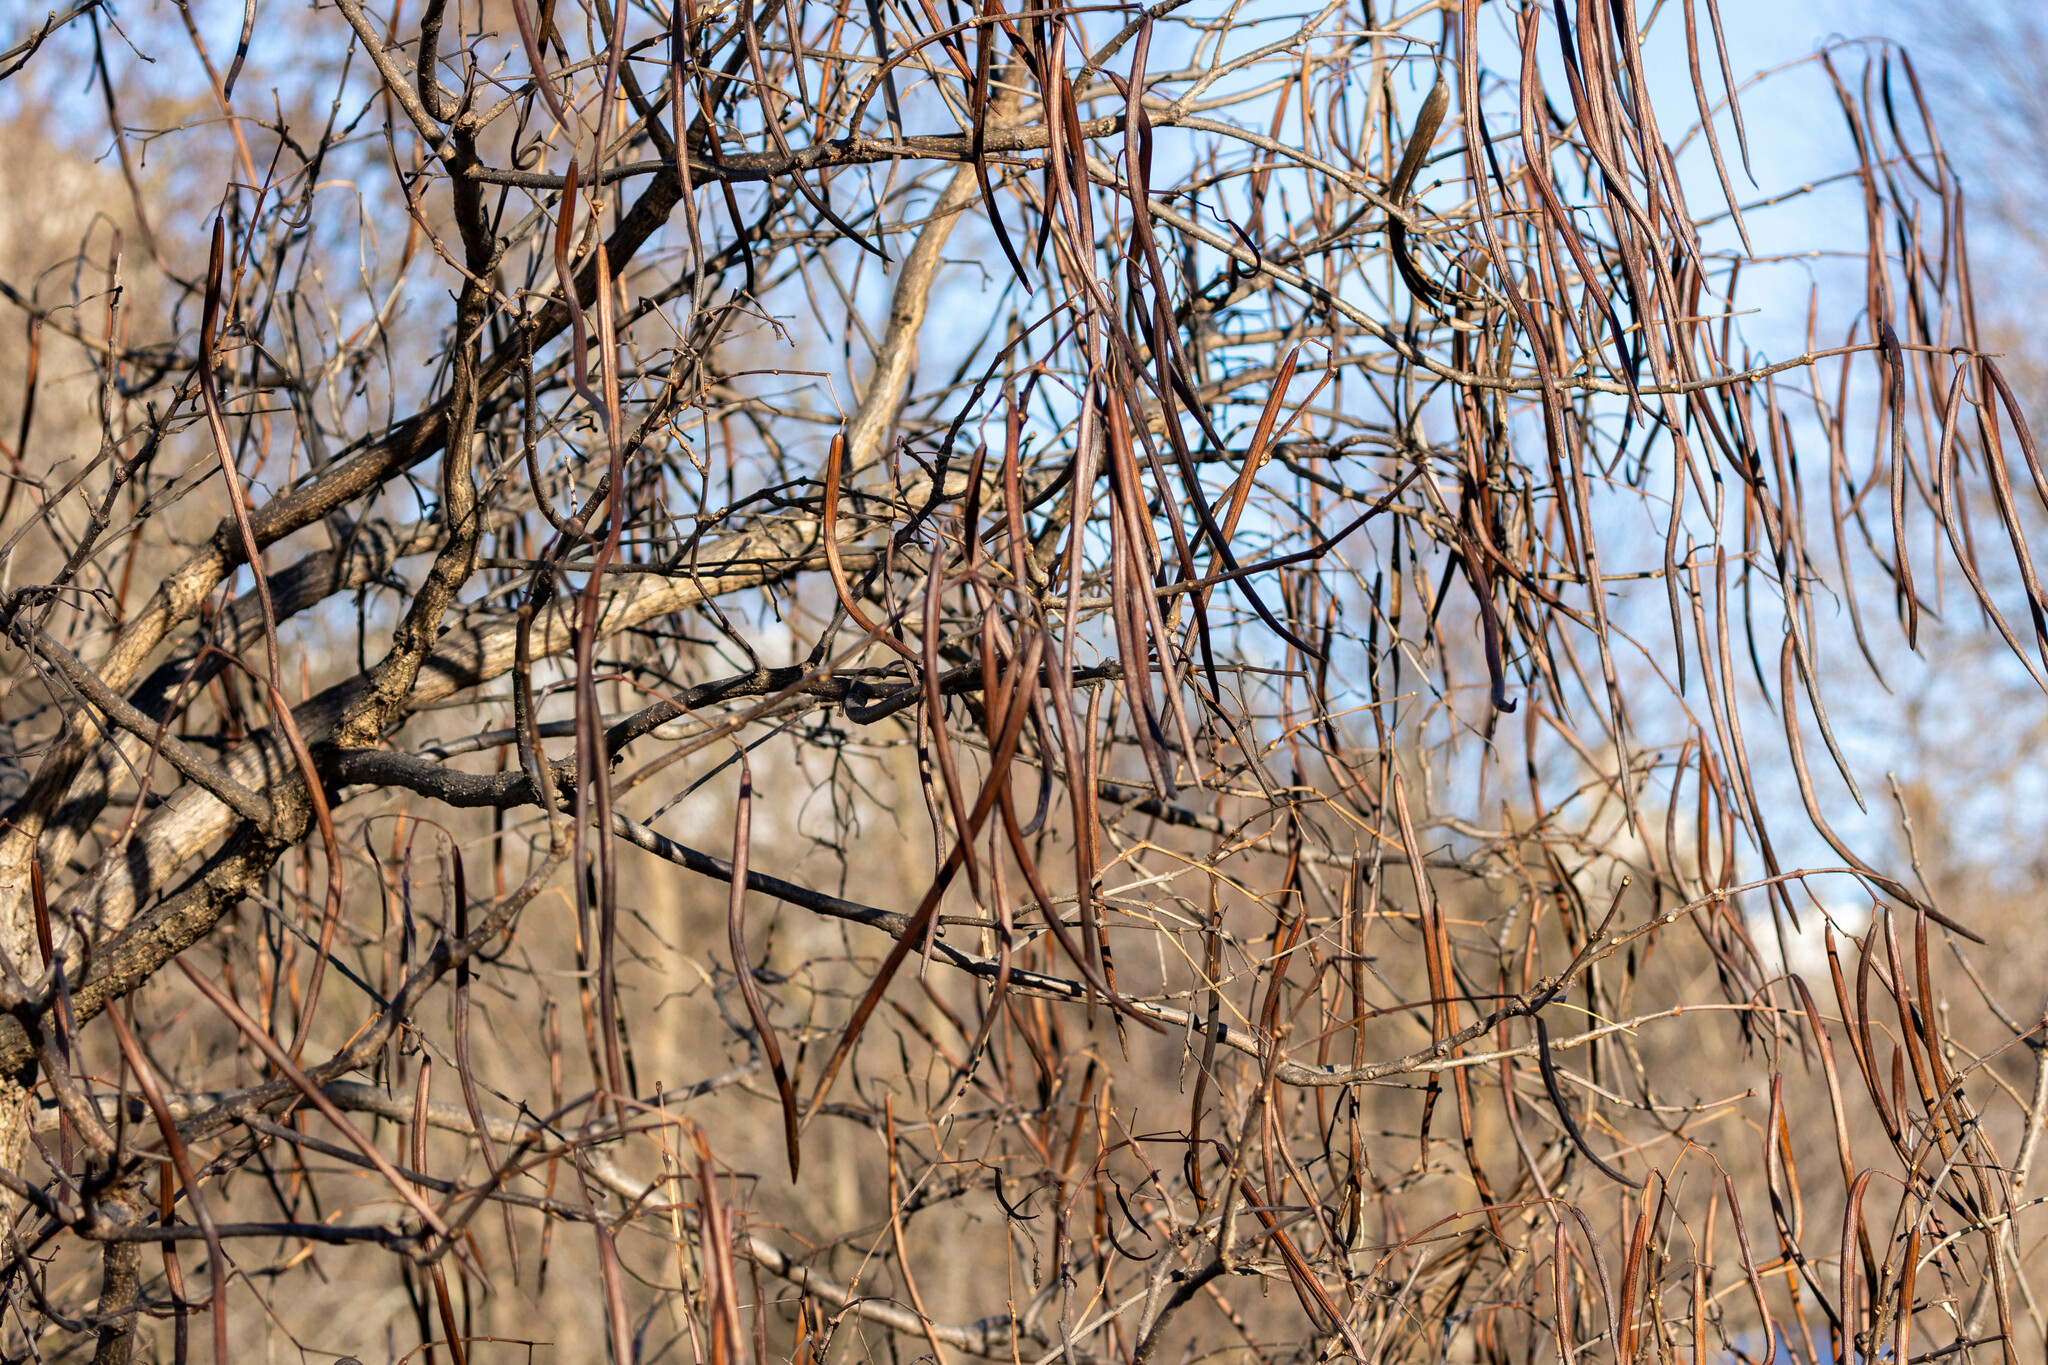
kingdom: Plantae
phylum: Tracheophyta
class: Magnoliopsida
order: Lamiales
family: Bignoniaceae
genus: Catalpa
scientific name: Catalpa speciosa
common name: Northern catalpa
